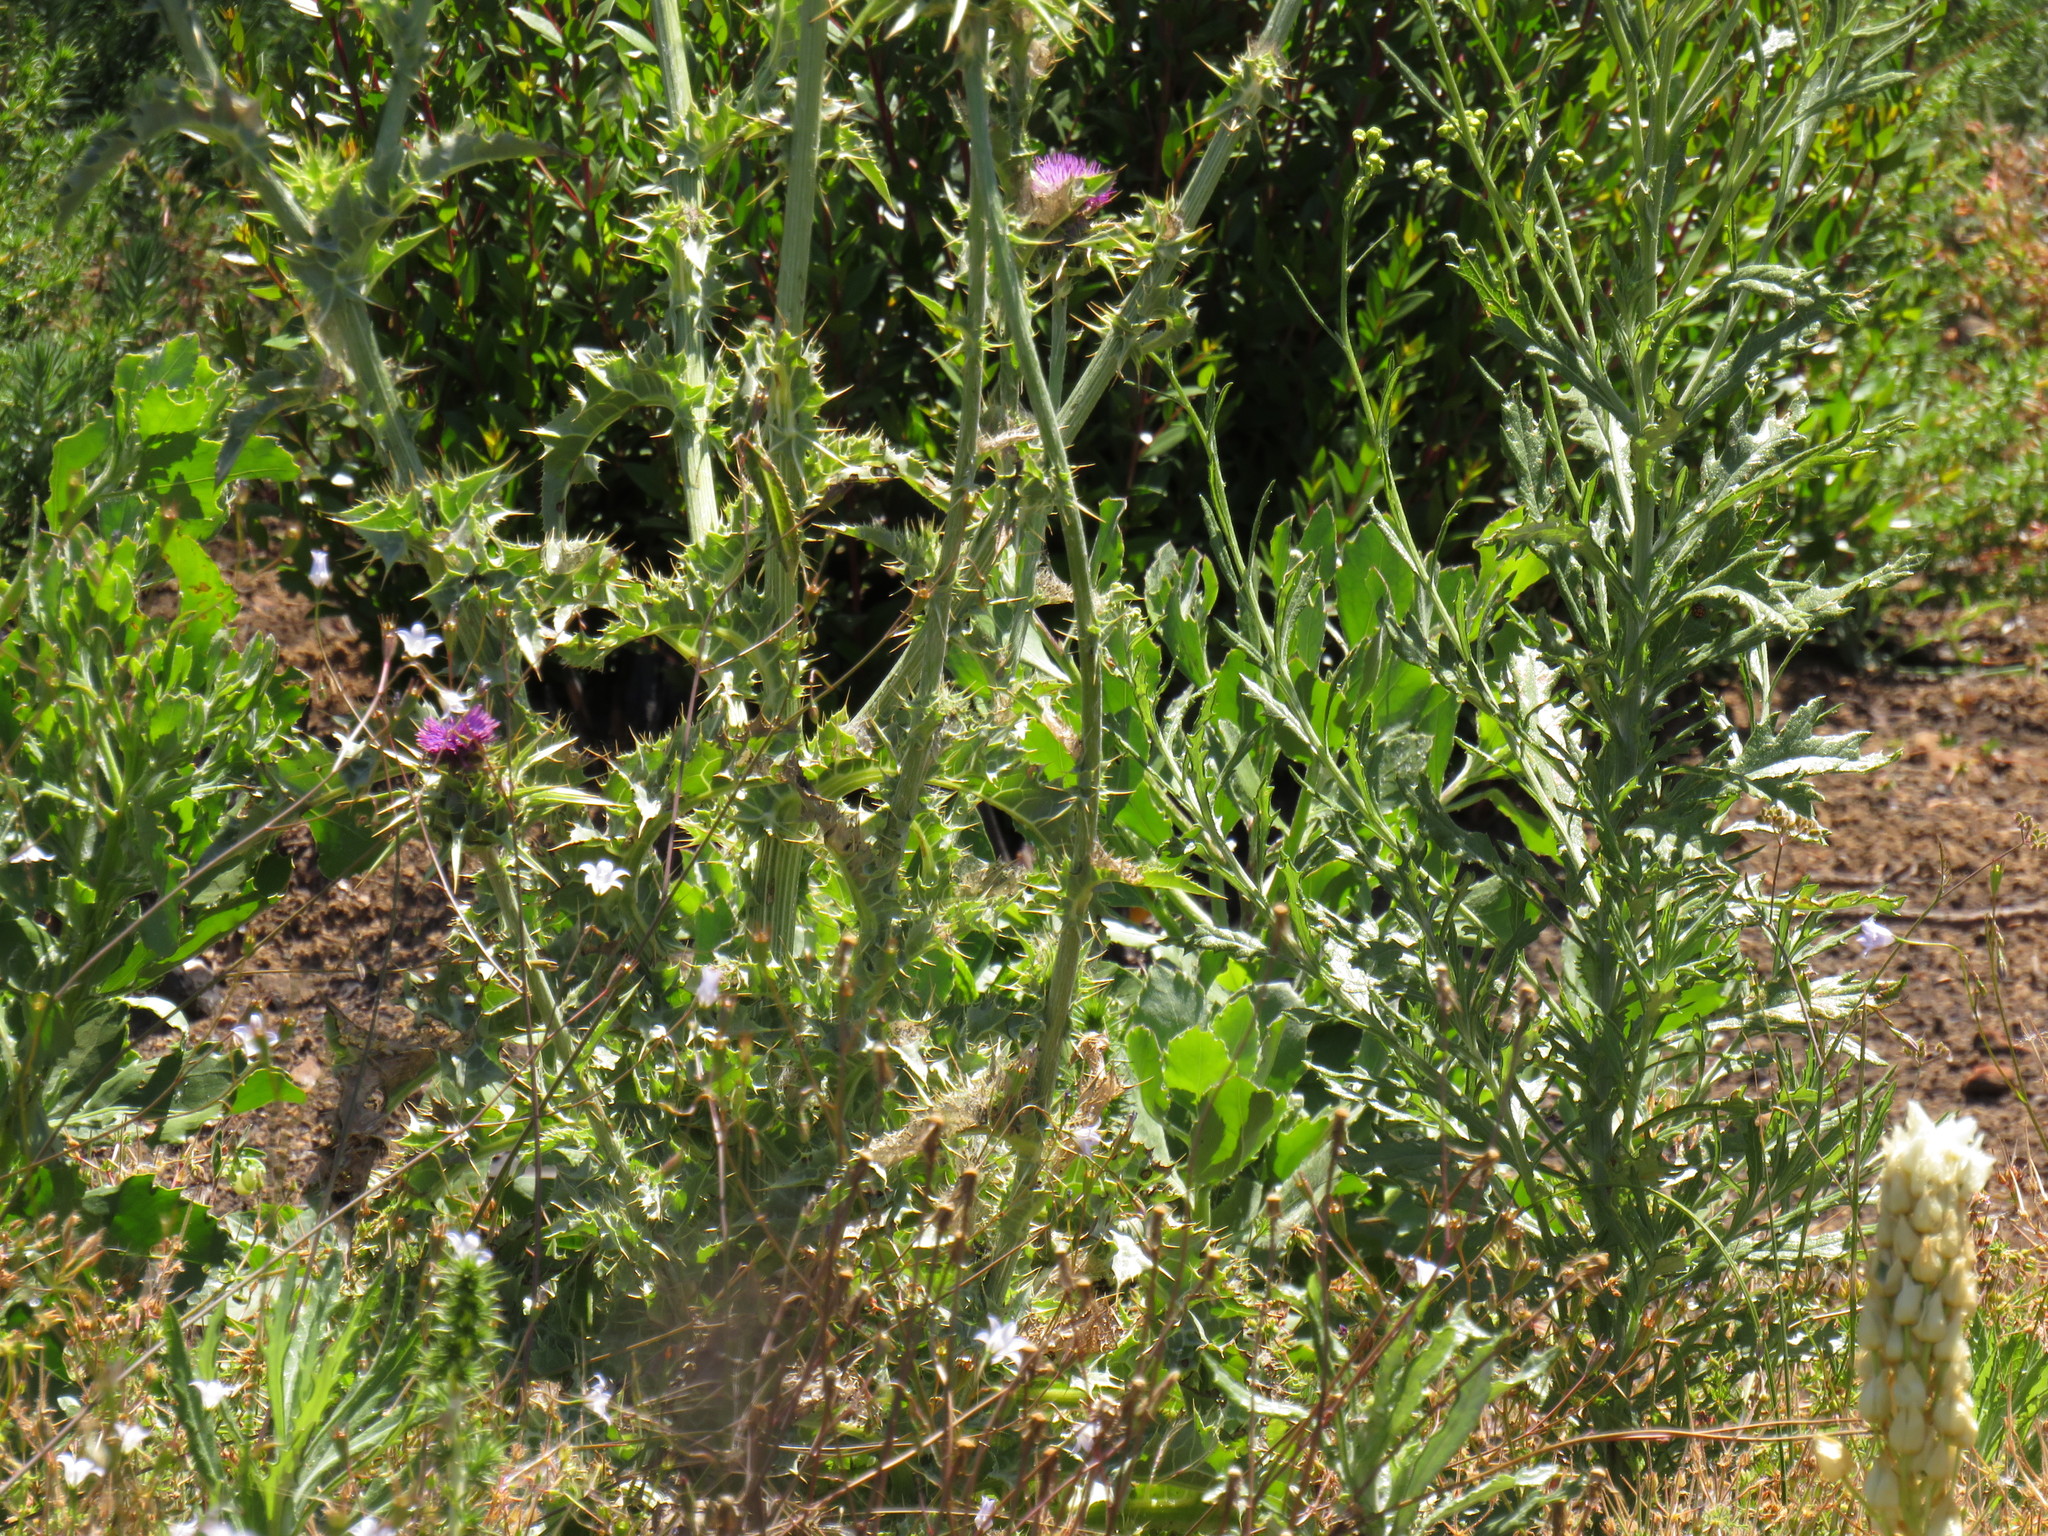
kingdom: Plantae
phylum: Tracheophyta
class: Magnoliopsida
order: Asterales
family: Asteraceae
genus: Silybum
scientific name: Silybum marianum
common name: Milk thistle
